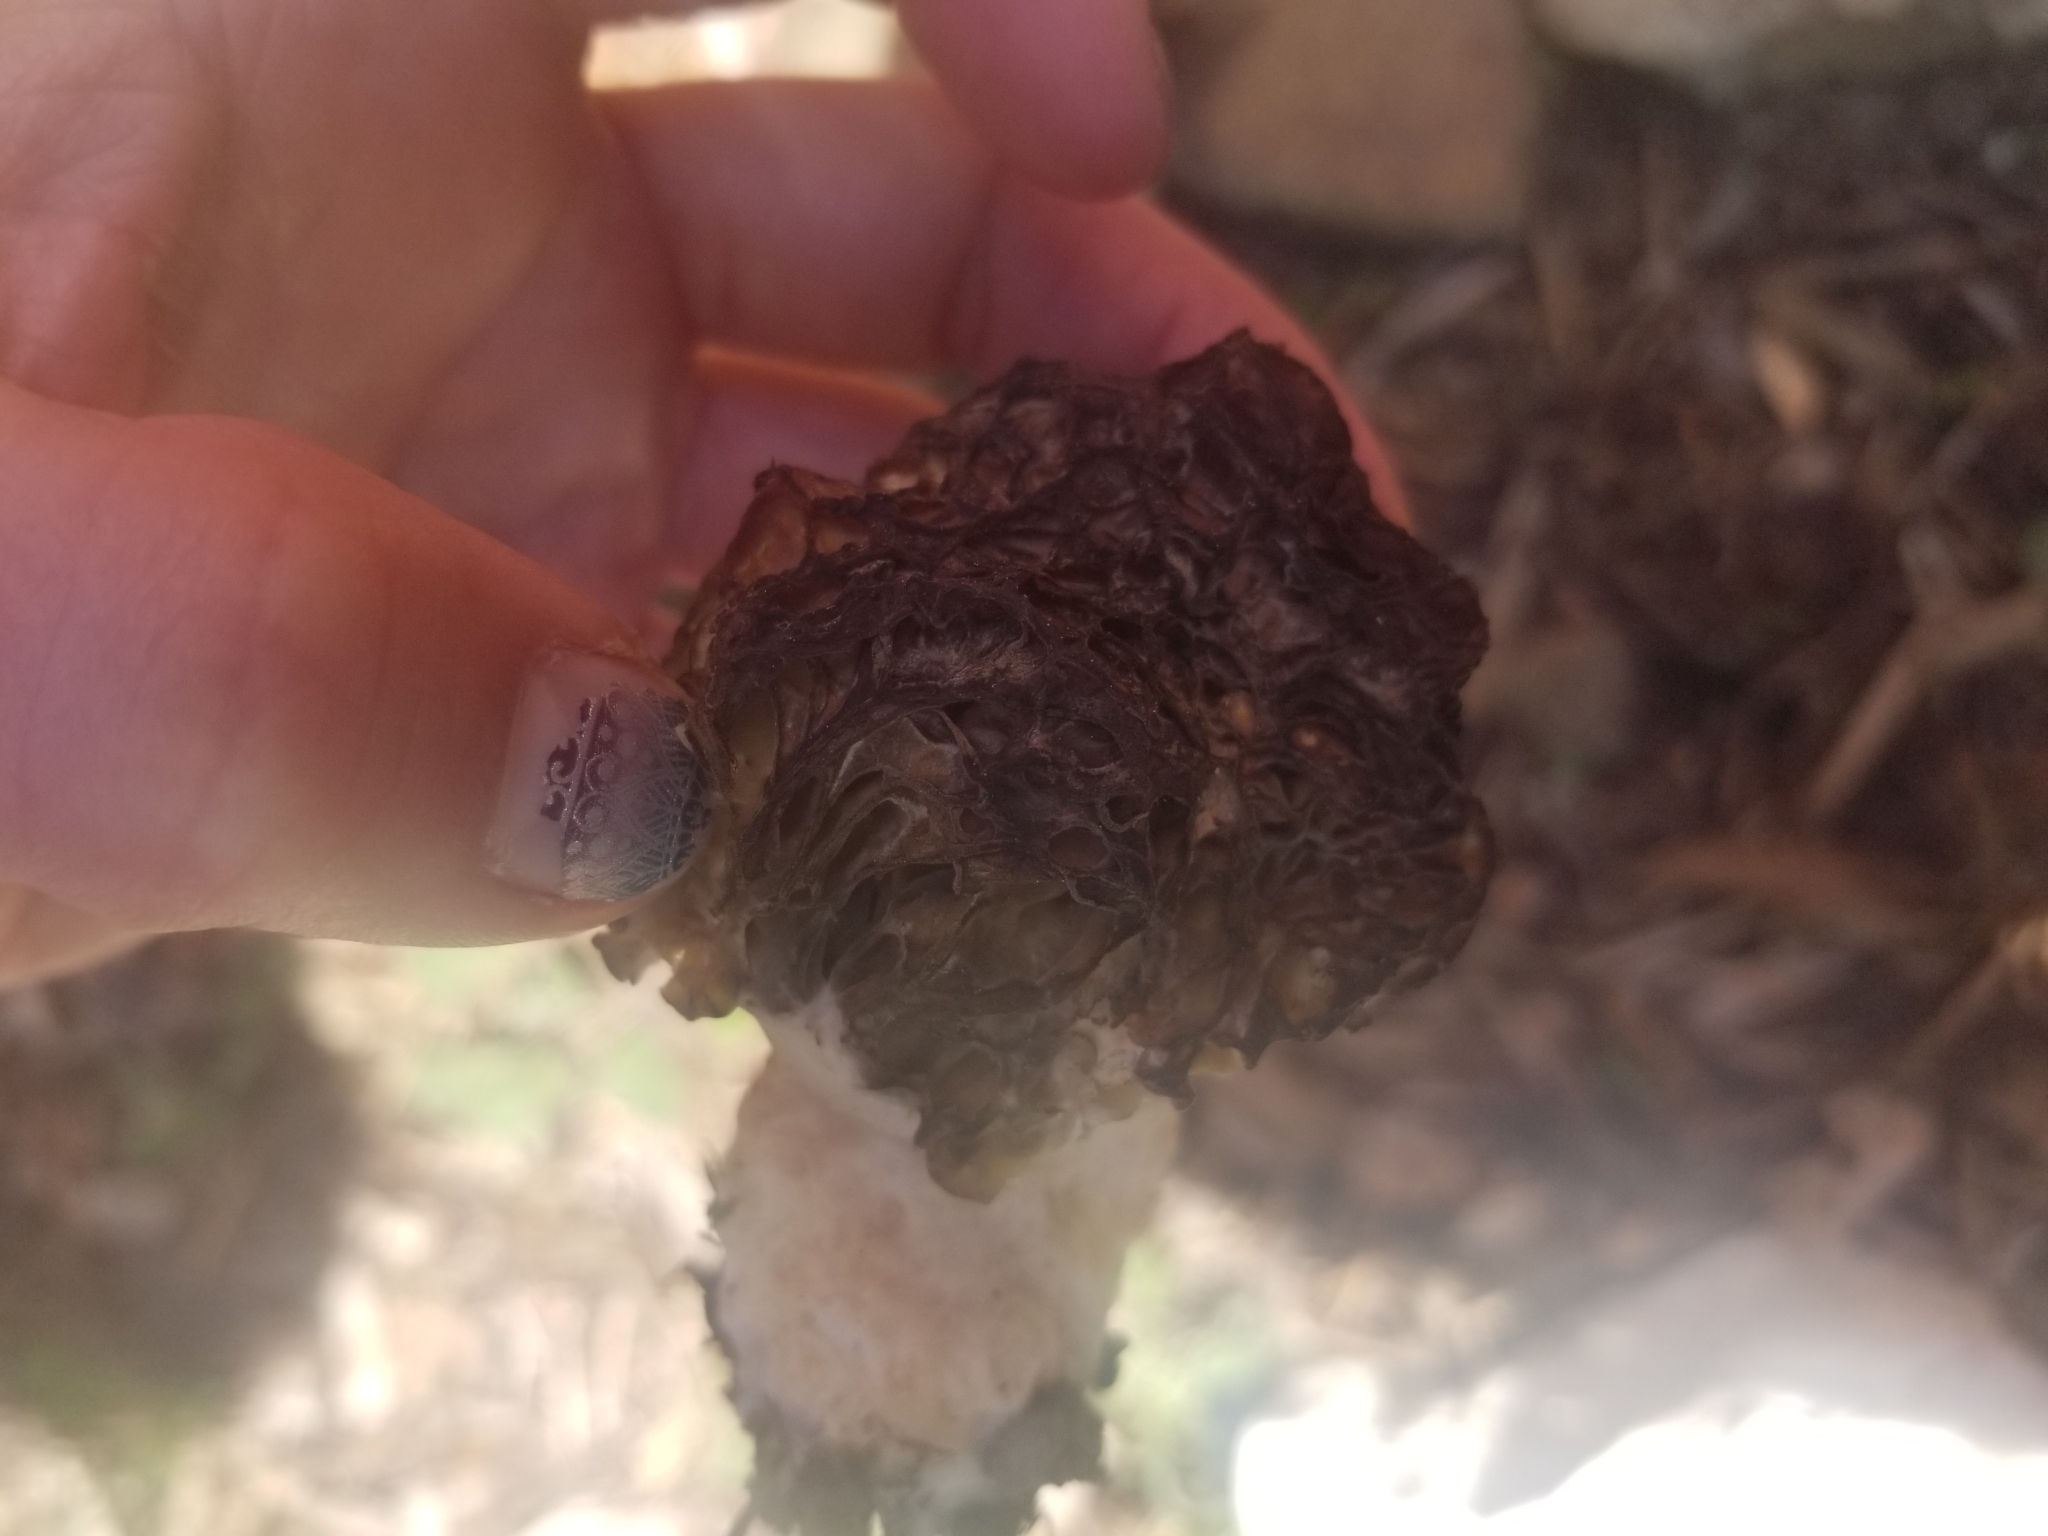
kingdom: Fungi
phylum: Ascomycota
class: Pezizomycetes
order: Pezizales
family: Morchellaceae
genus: Morchella
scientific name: Morchella snyderi
